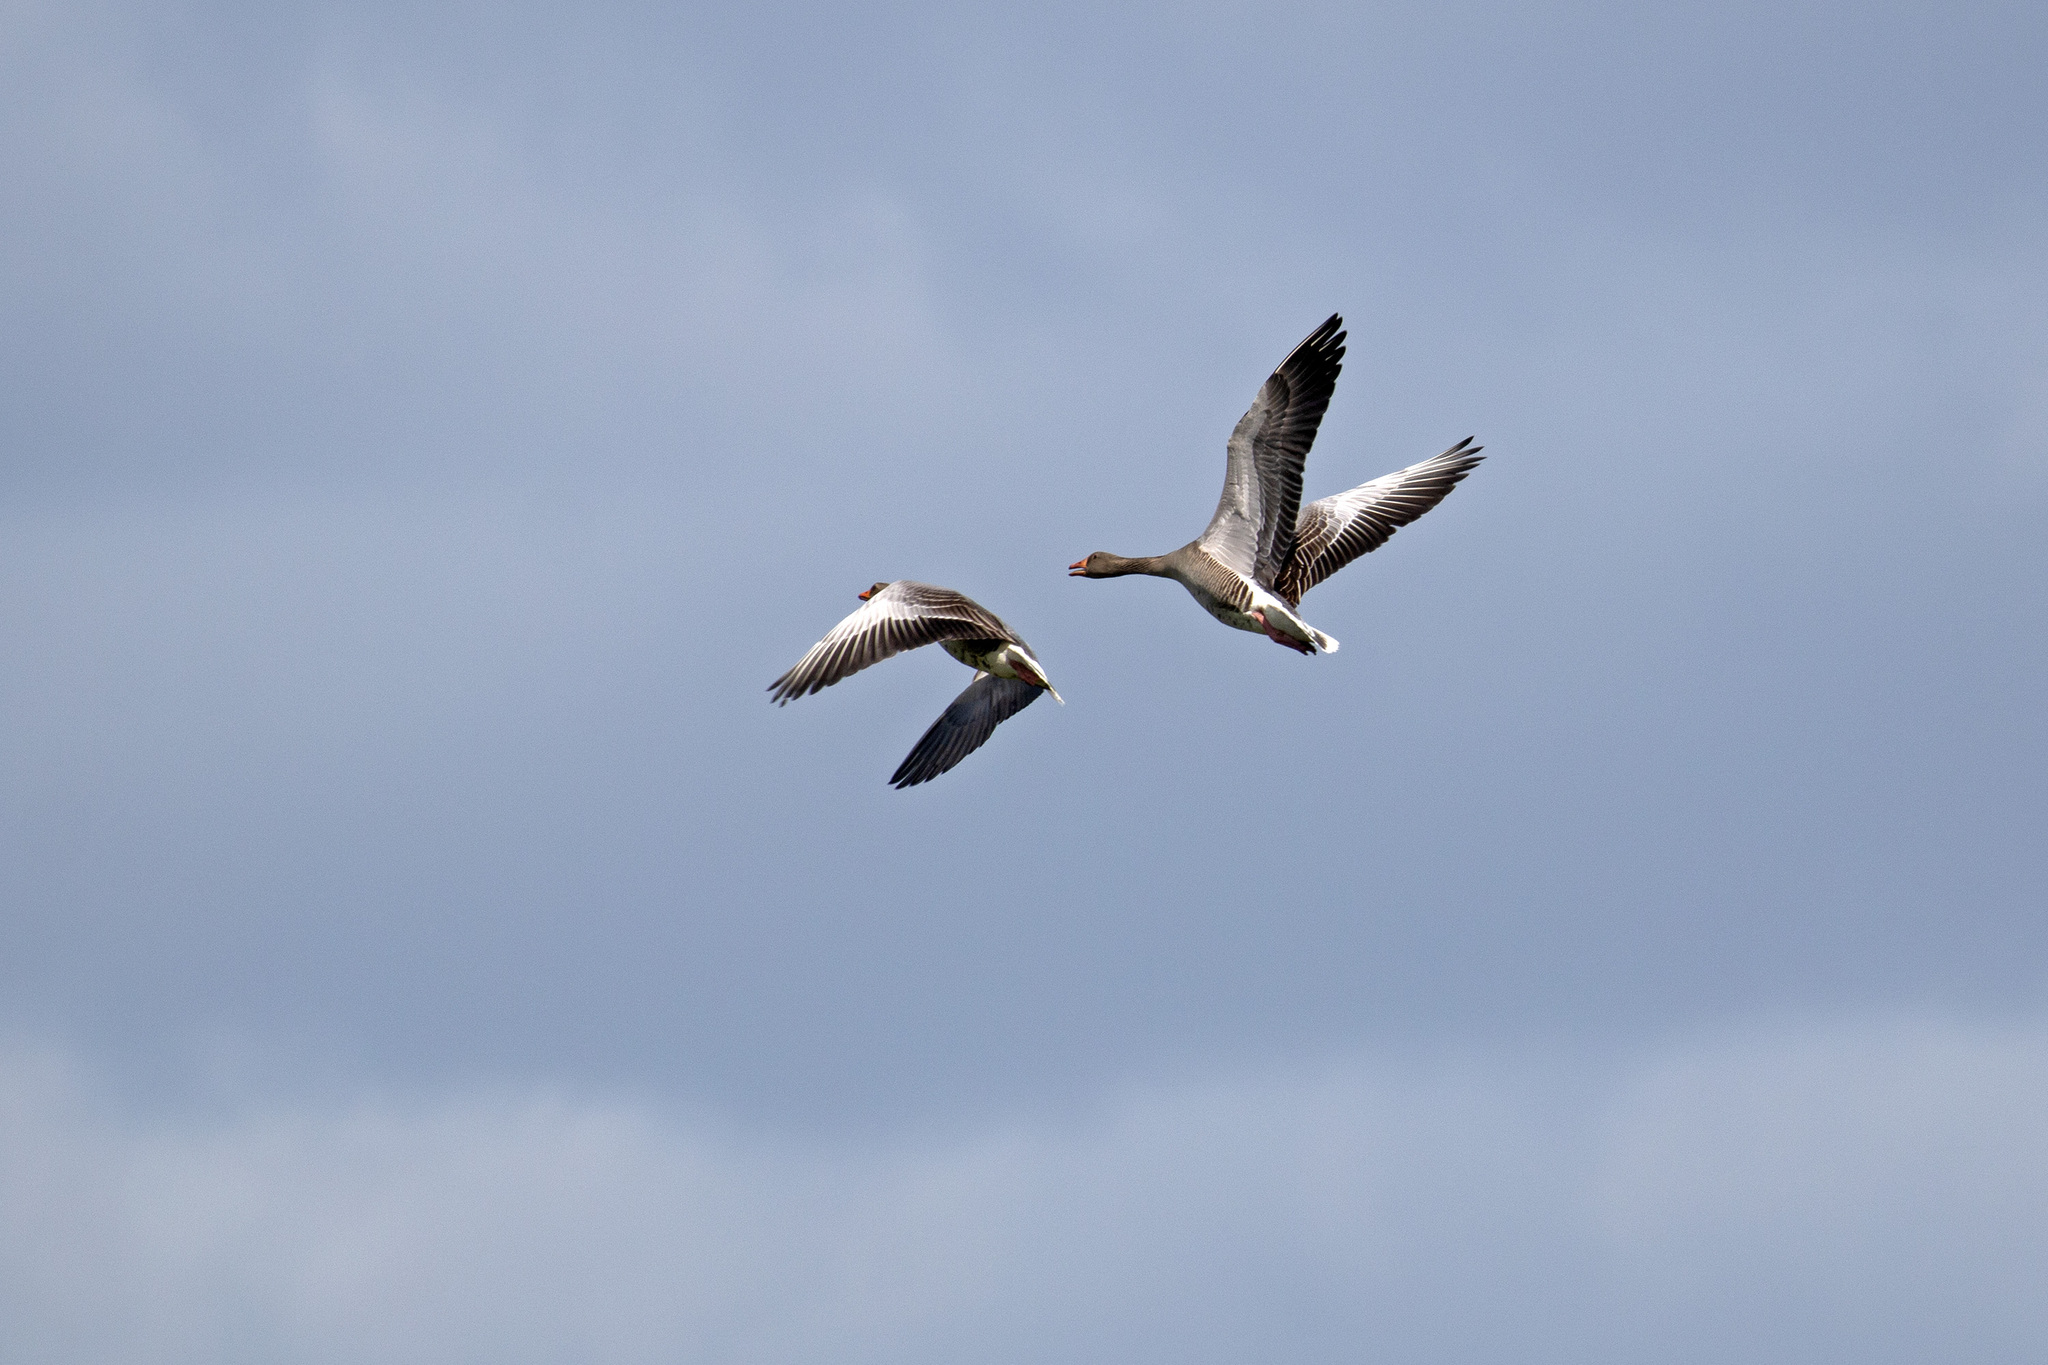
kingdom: Animalia
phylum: Chordata
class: Aves
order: Anseriformes
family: Anatidae
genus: Anser
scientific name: Anser anser
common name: Greylag goose
